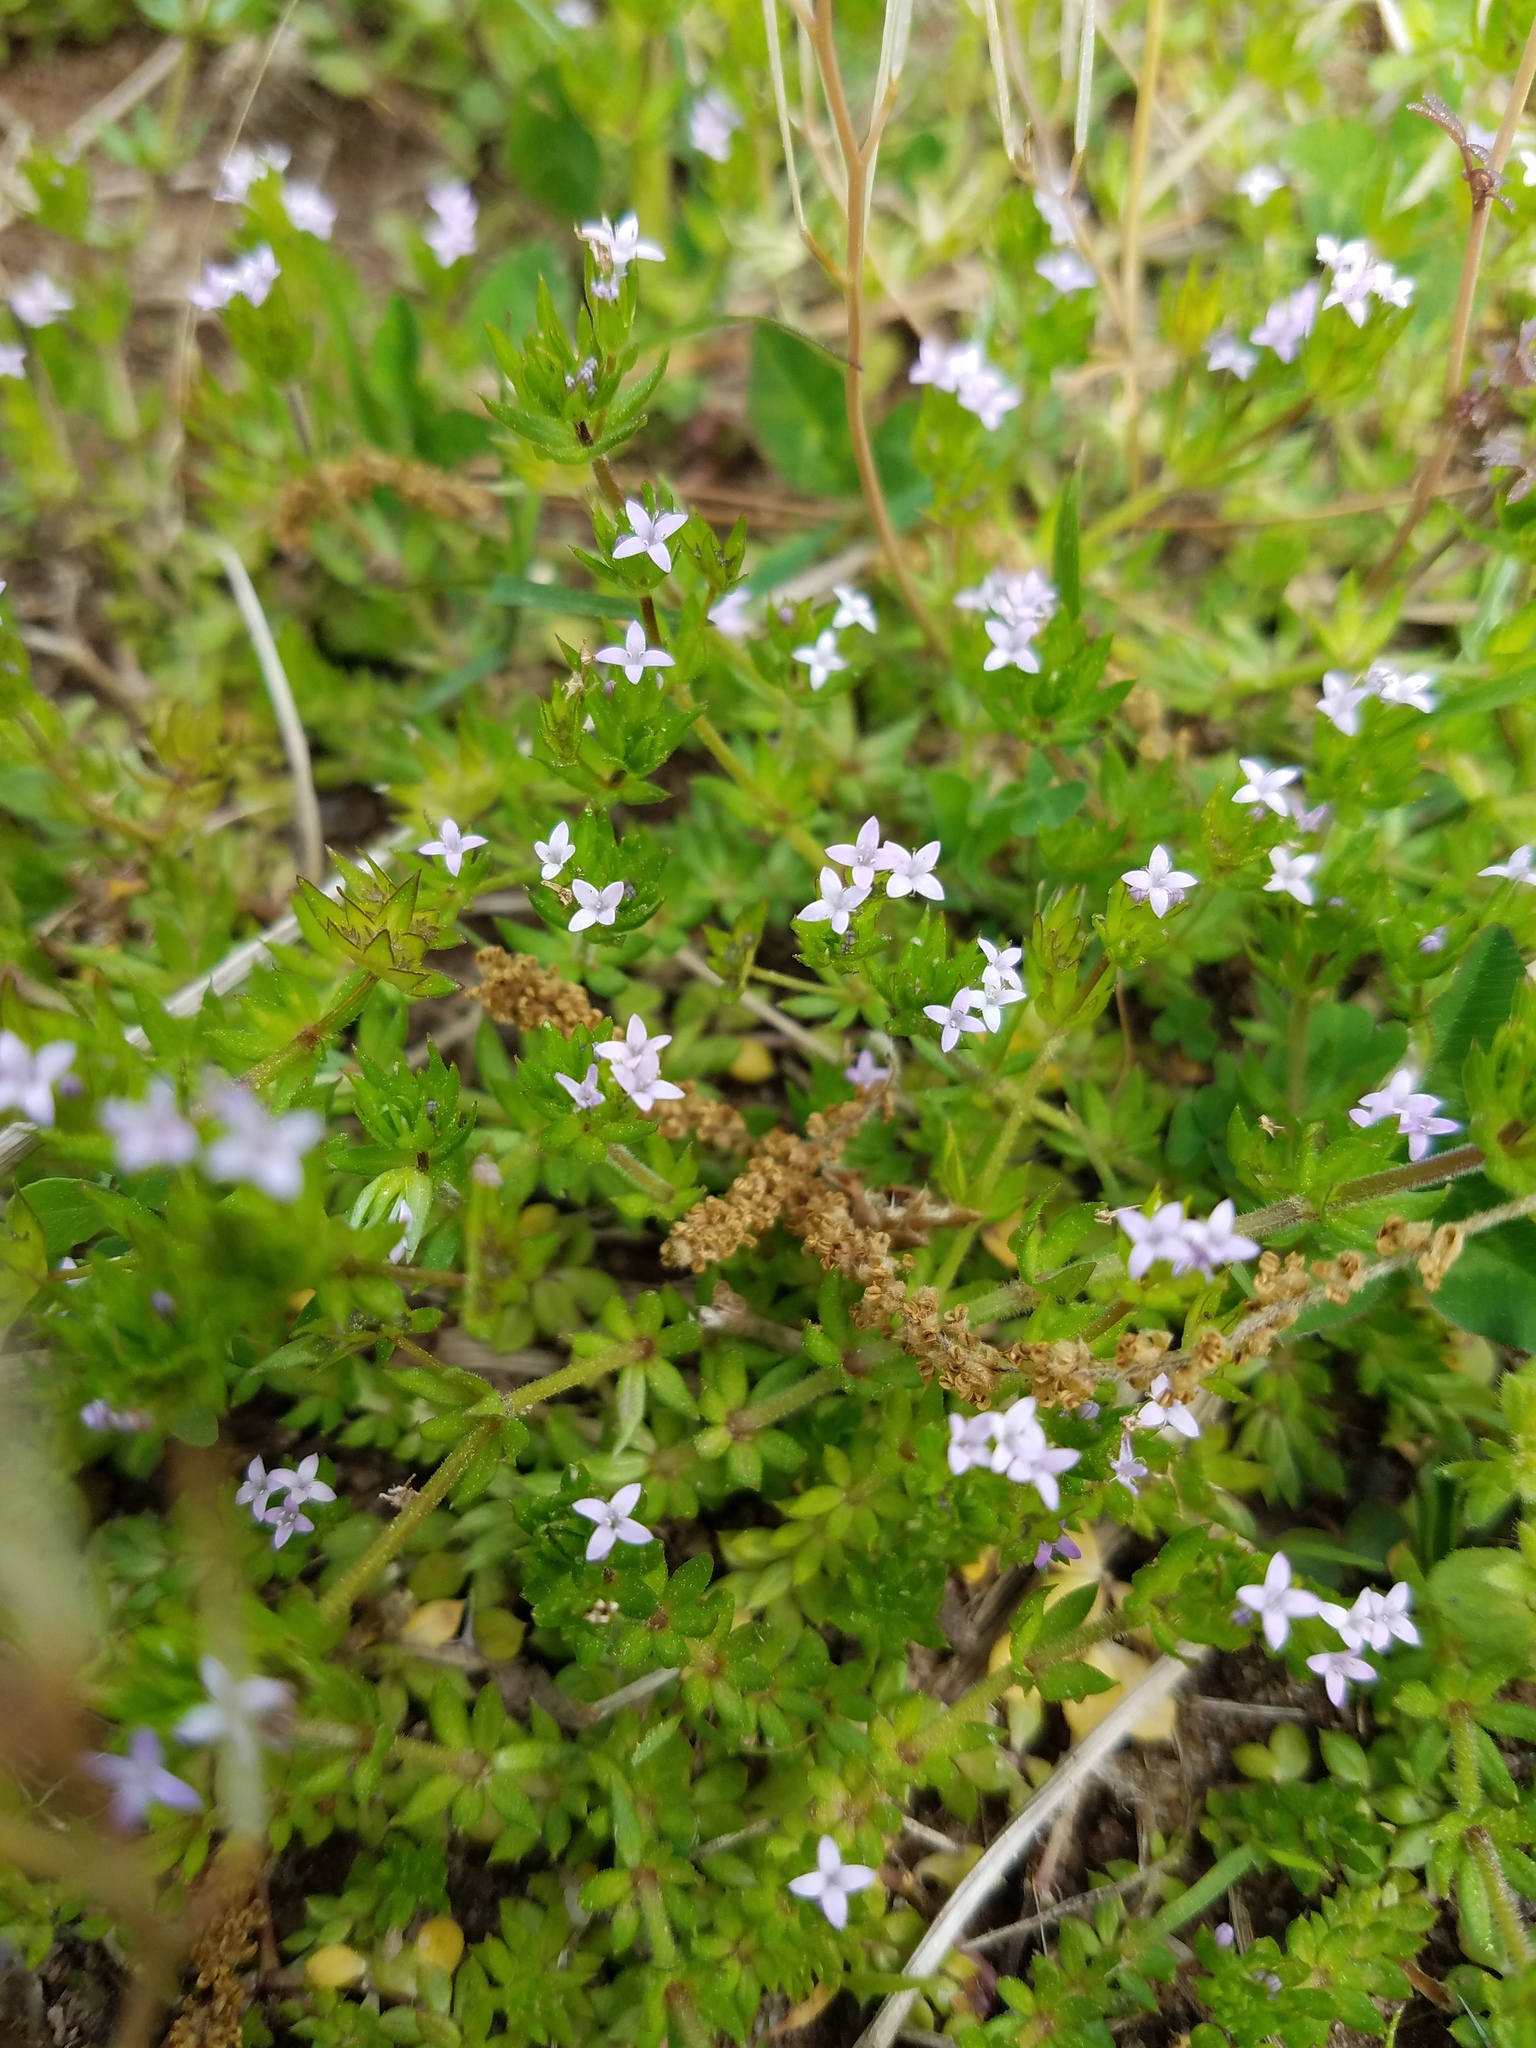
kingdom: Plantae
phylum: Tracheophyta
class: Magnoliopsida
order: Gentianales
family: Rubiaceae
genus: Sherardia
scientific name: Sherardia arvensis
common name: Field madder
